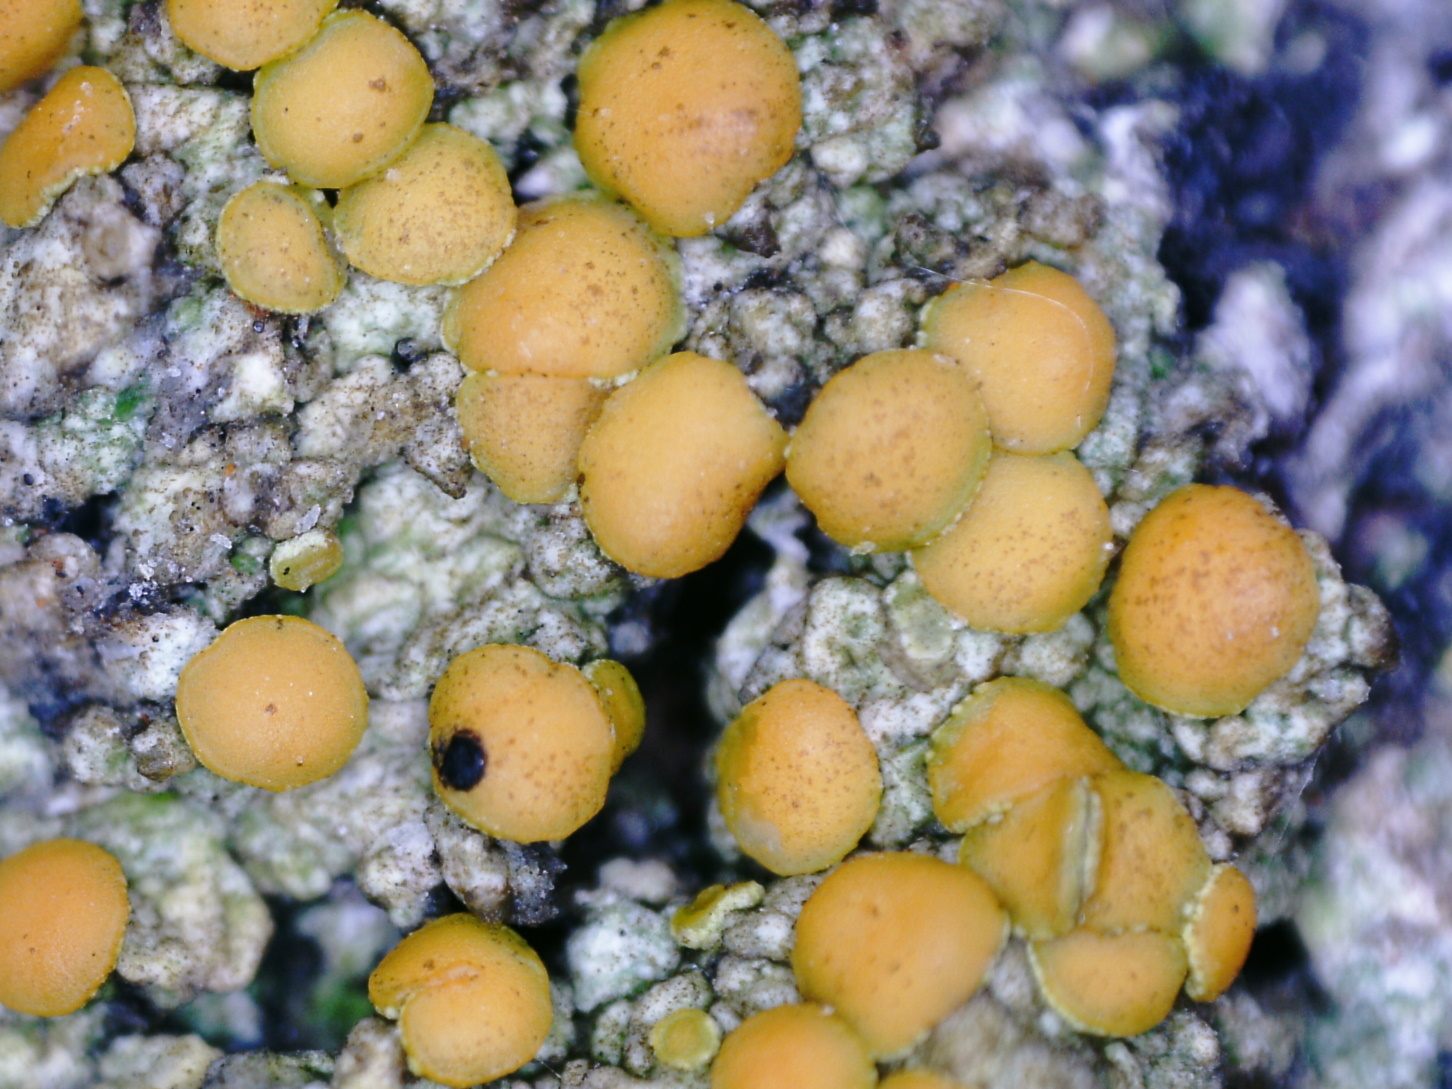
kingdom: Fungi
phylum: Ascomycota
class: Lecanoromycetes
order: Teloschistales
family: Teloschistaceae
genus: Opeltia
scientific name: Opeltia flavorubescens
